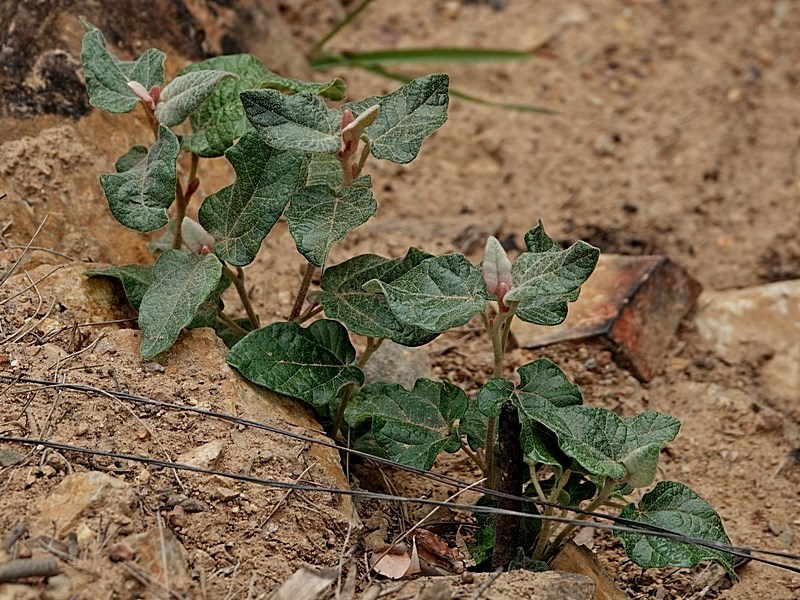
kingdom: Plantae
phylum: Tracheophyta
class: Magnoliopsida
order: Malvales
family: Malvaceae
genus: Lasiopetalum
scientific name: Lasiopetalum macrophyllum
